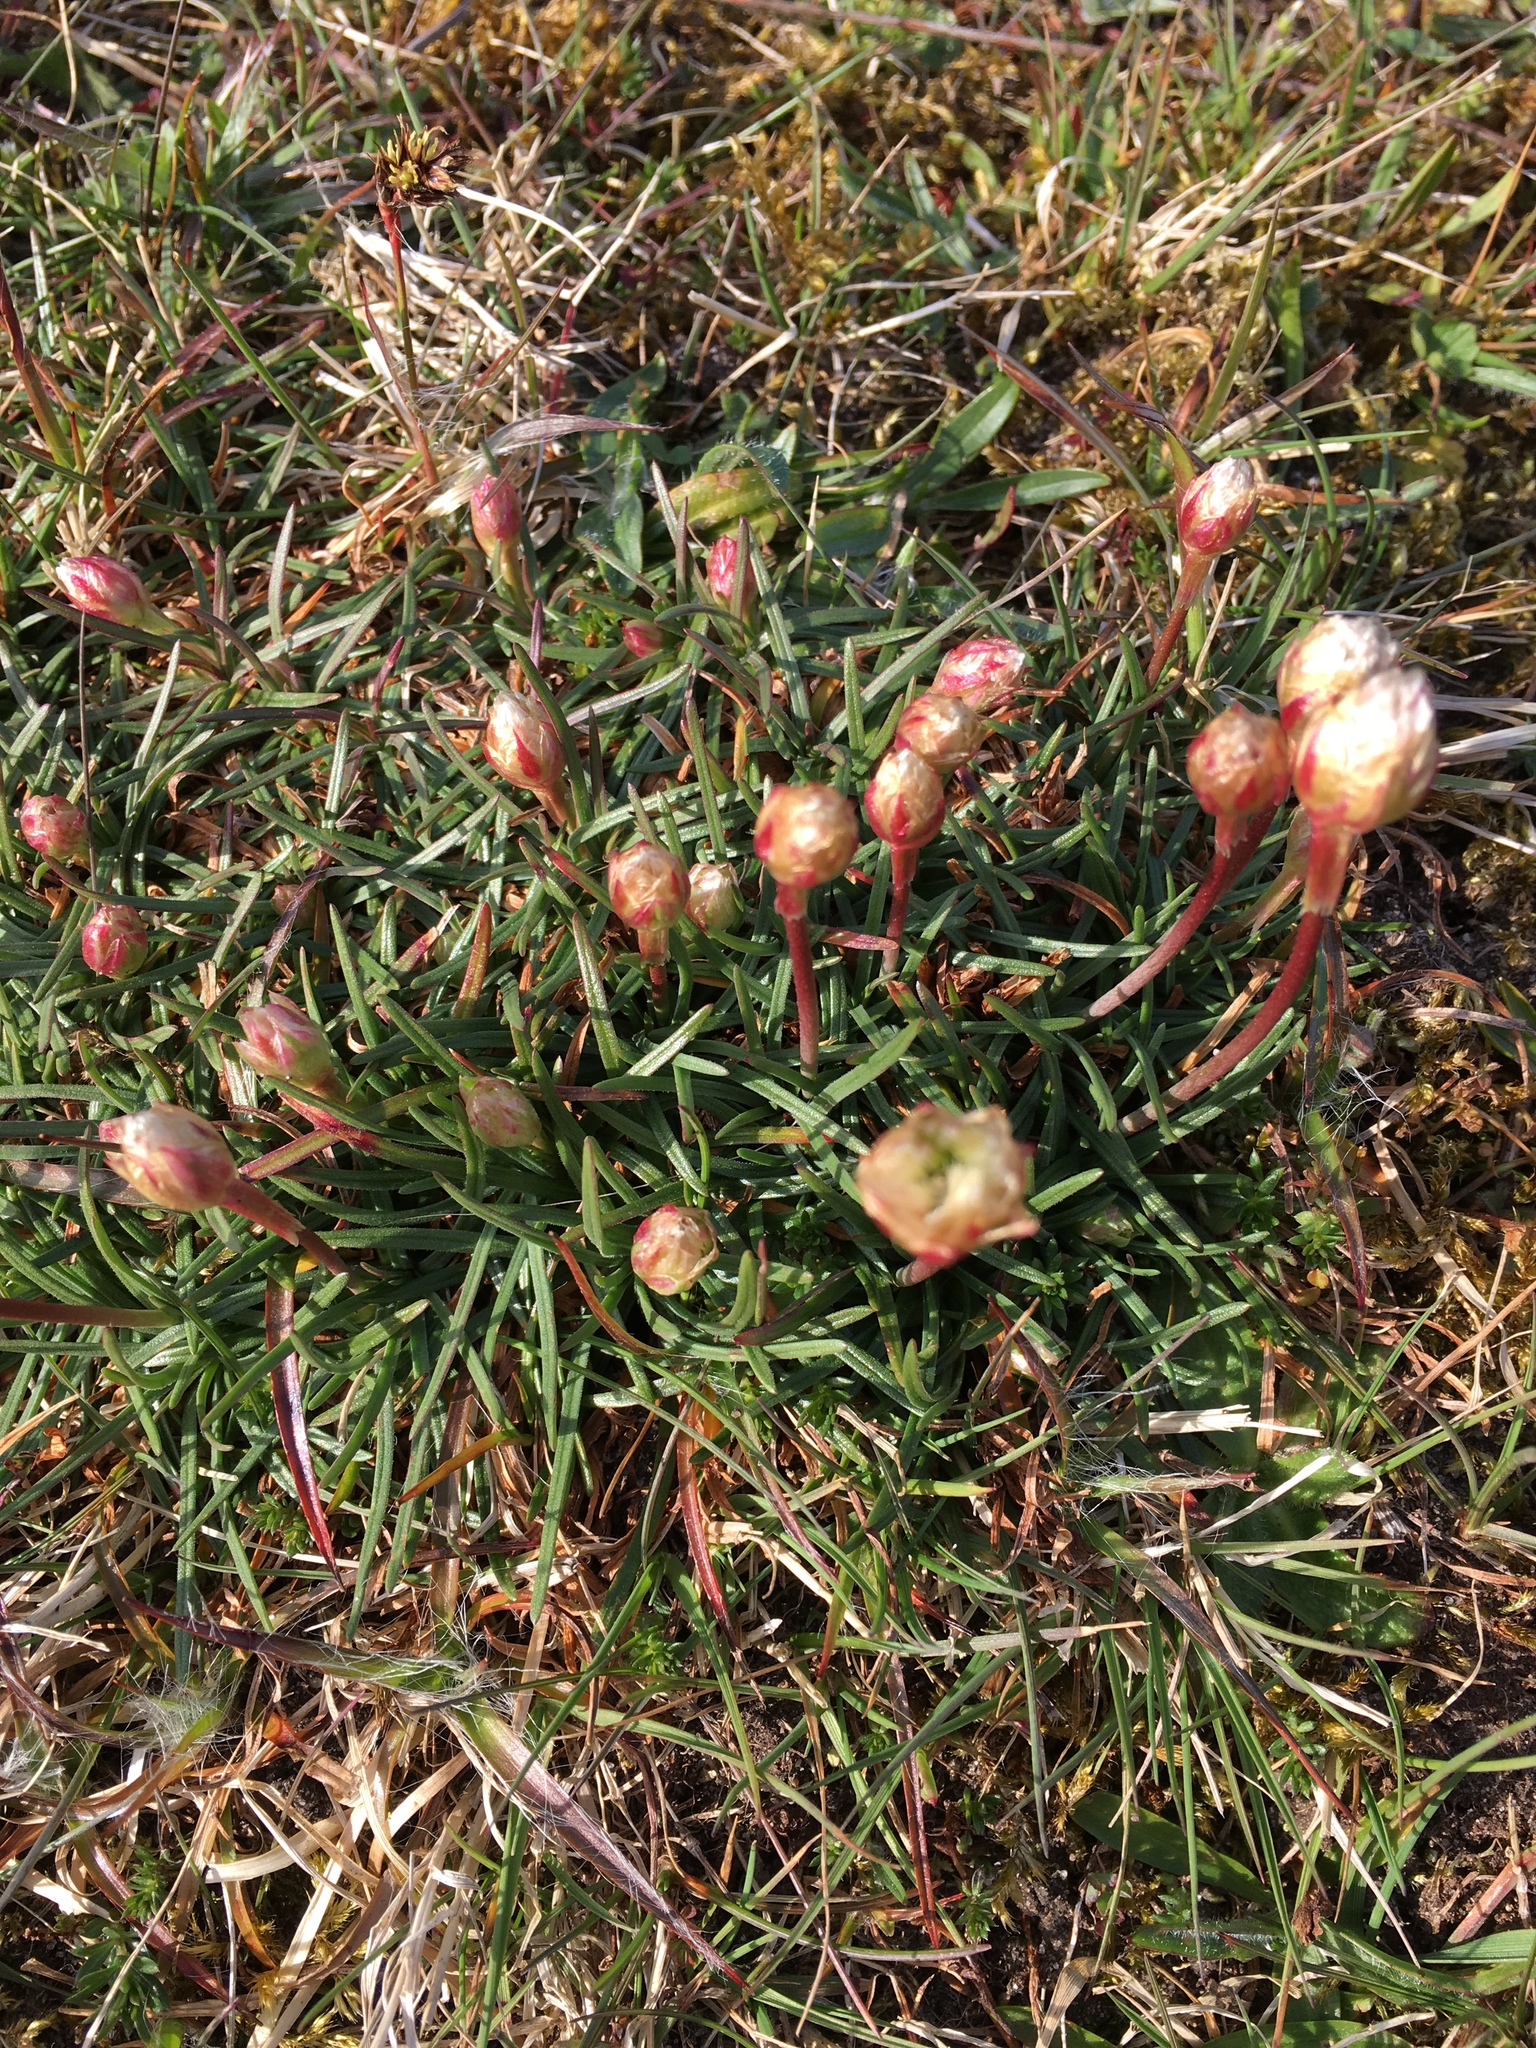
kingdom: Plantae
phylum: Tracheophyta
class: Magnoliopsida
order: Caryophyllales
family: Plumbaginaceae
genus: Armeria
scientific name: Armeria maritima
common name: Thrift
